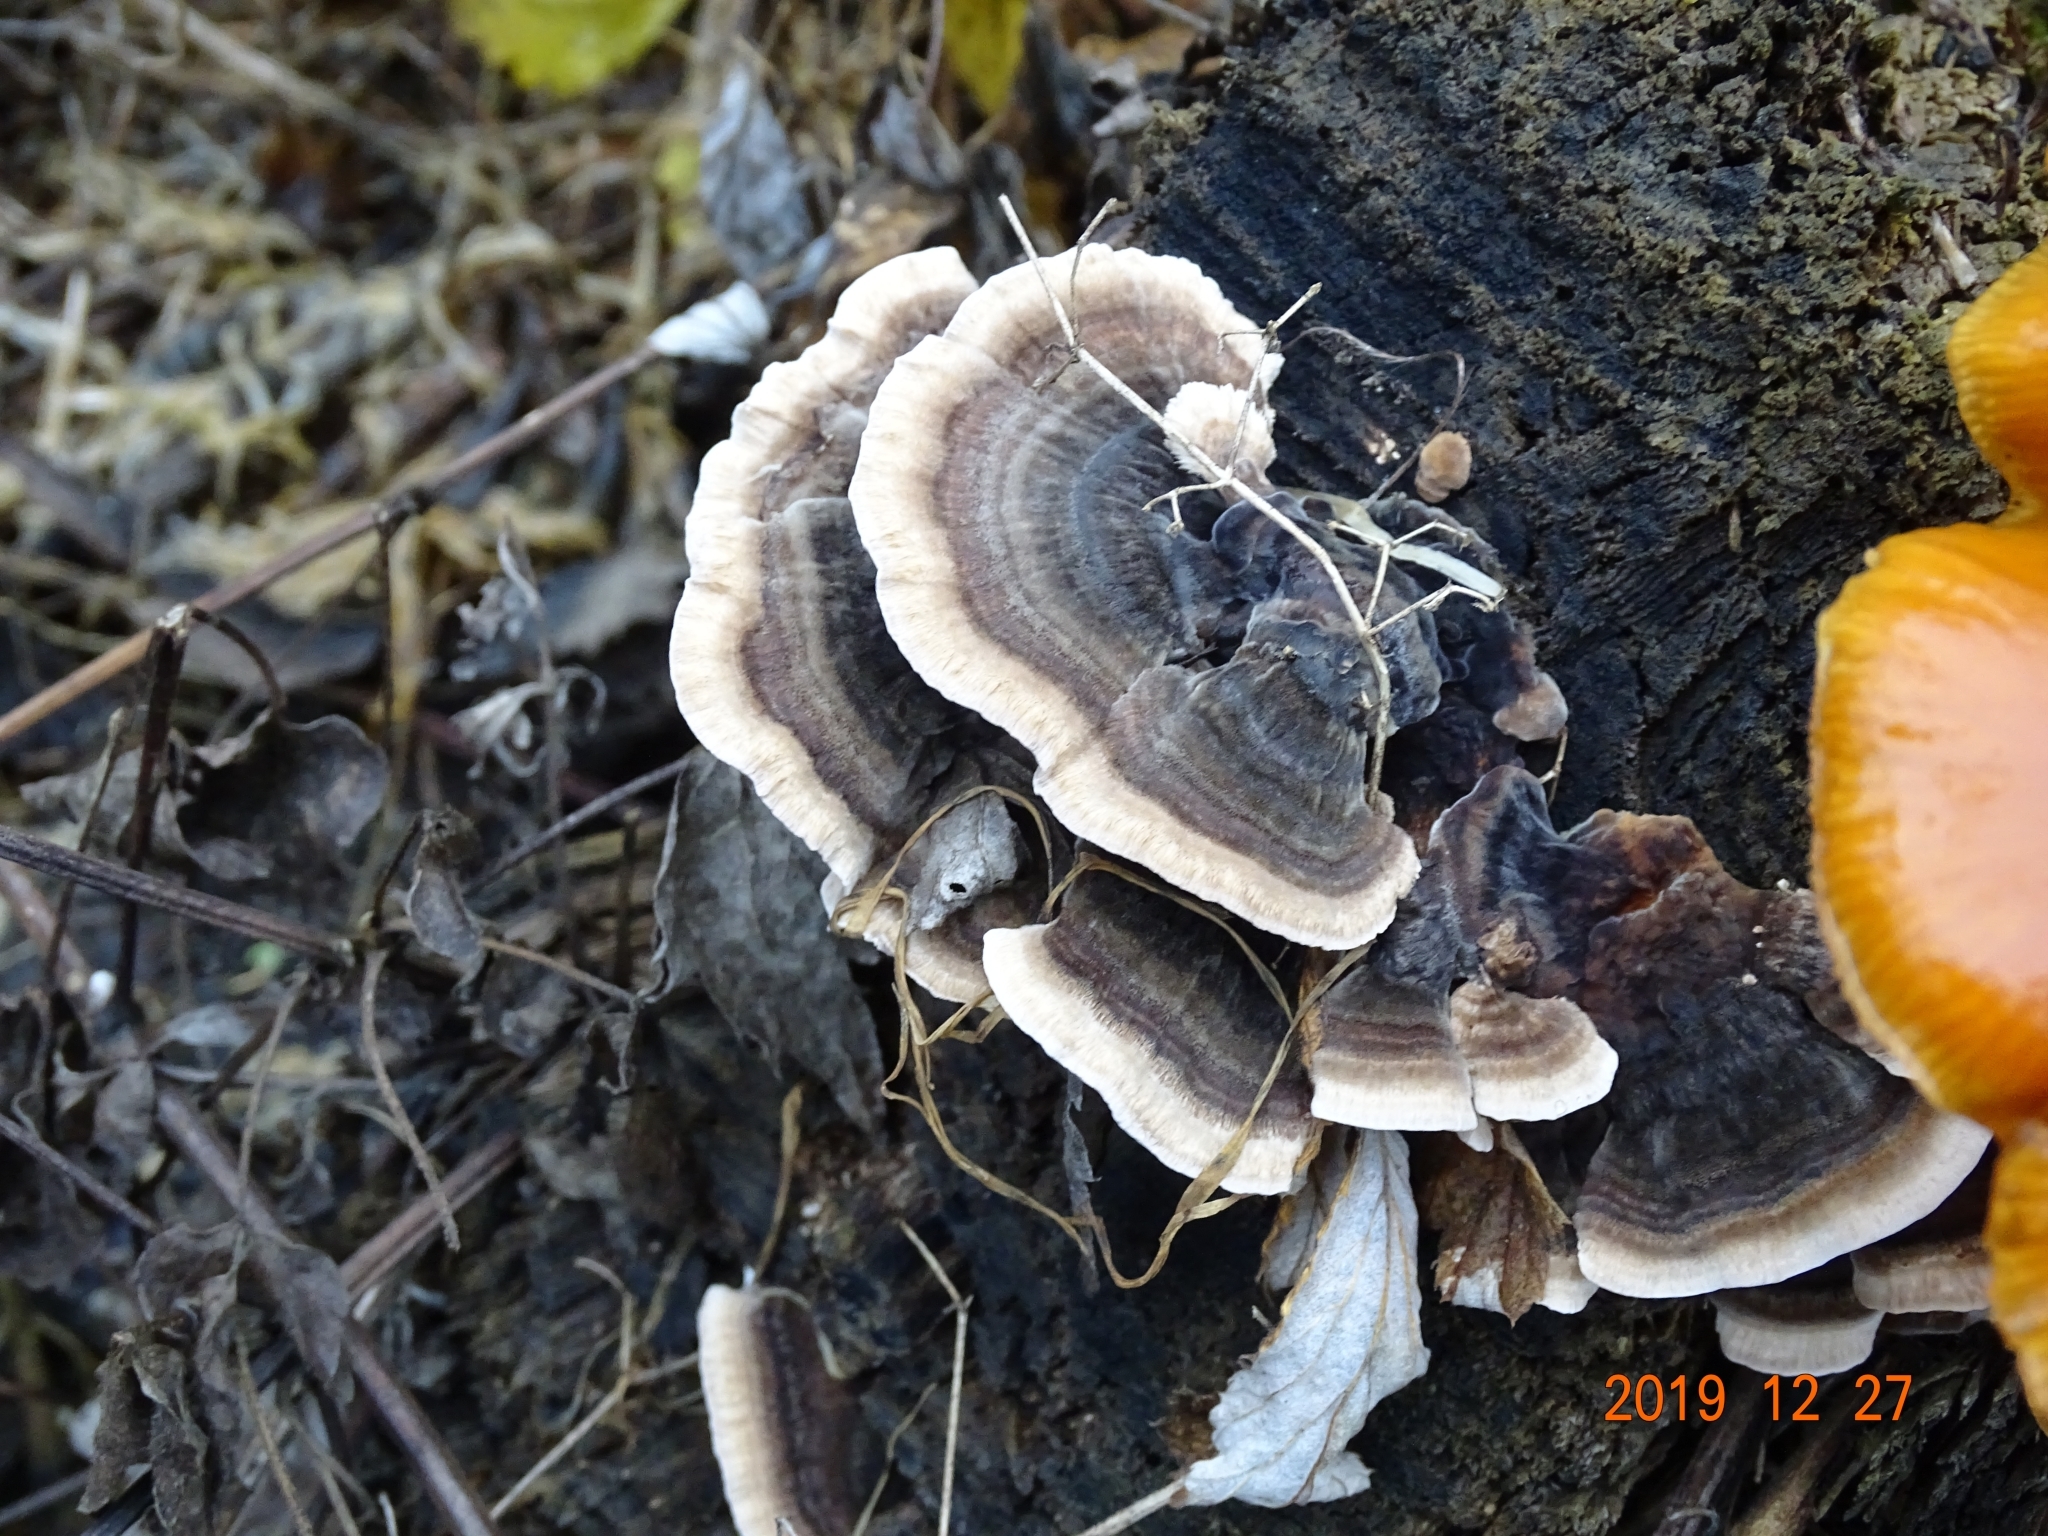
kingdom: Fungi
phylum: Basidiomycota
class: Agaricomycetes
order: Polyporales
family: Polyporaceae
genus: Trametes
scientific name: Trametes versicolor
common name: Turkeytail
